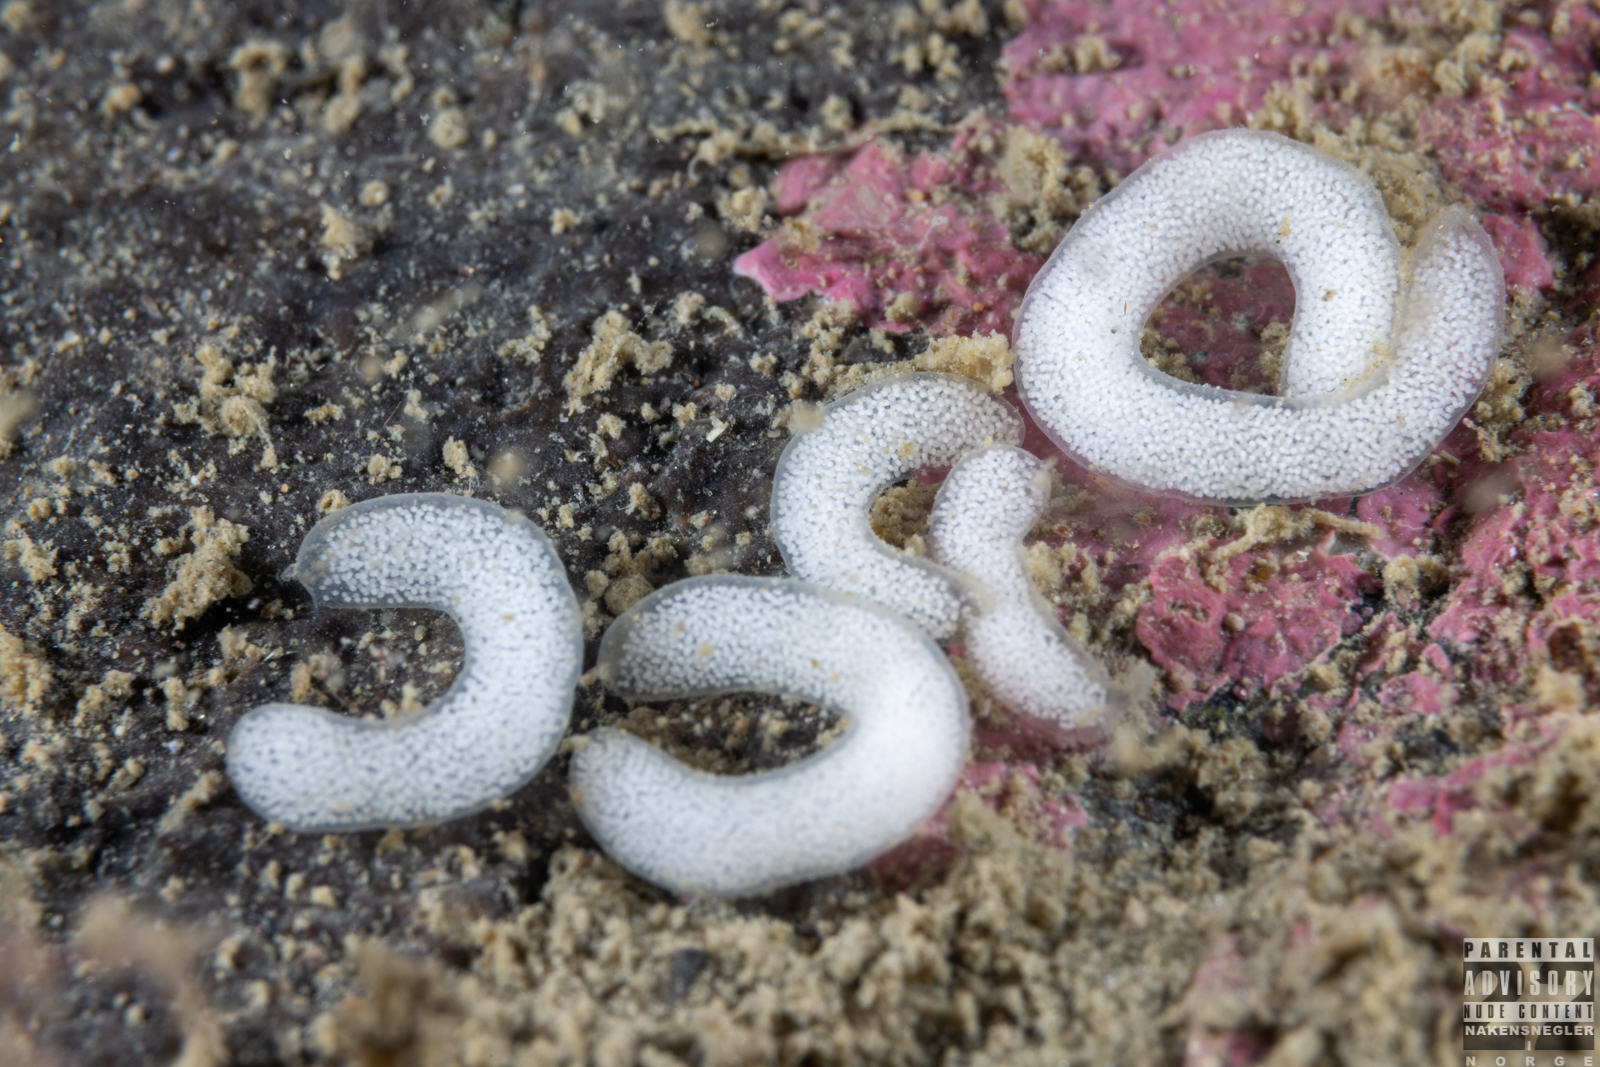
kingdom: Animalia
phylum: Mollusca
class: Gastropoda
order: Nudibranchia
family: Goniodorididae
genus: Okenia
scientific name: Okenia
